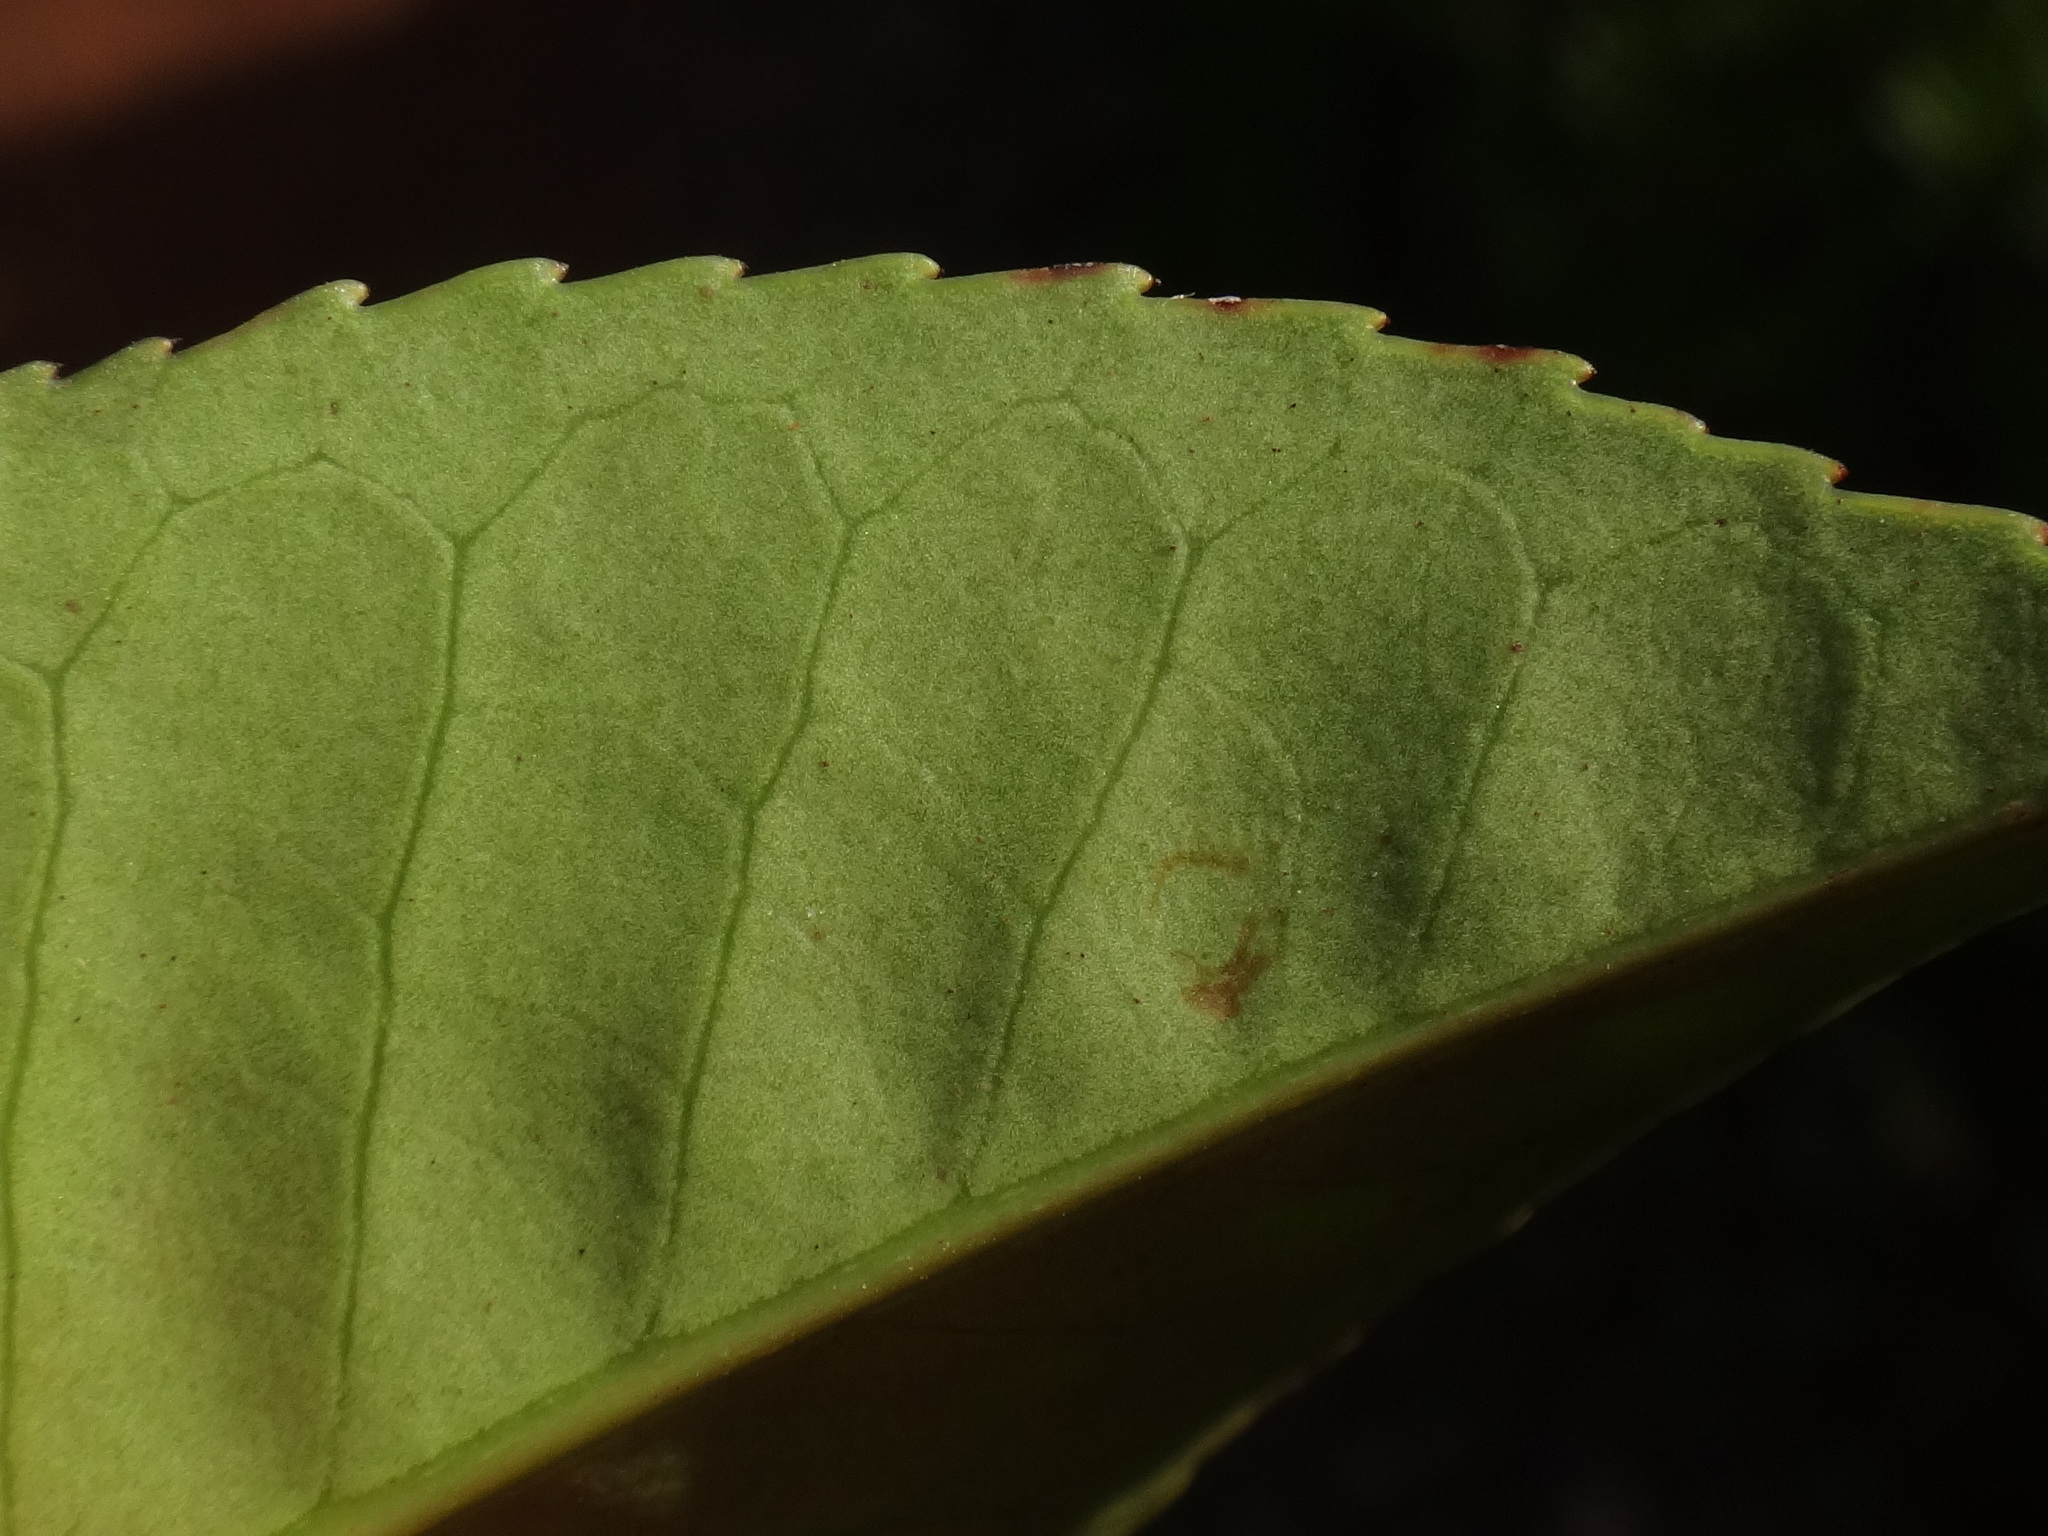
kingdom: Plantae
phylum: Tracheophyta
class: Magnoliopsida
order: Rosales
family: Rosaceae
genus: Prunus
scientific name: Prunus hixa
